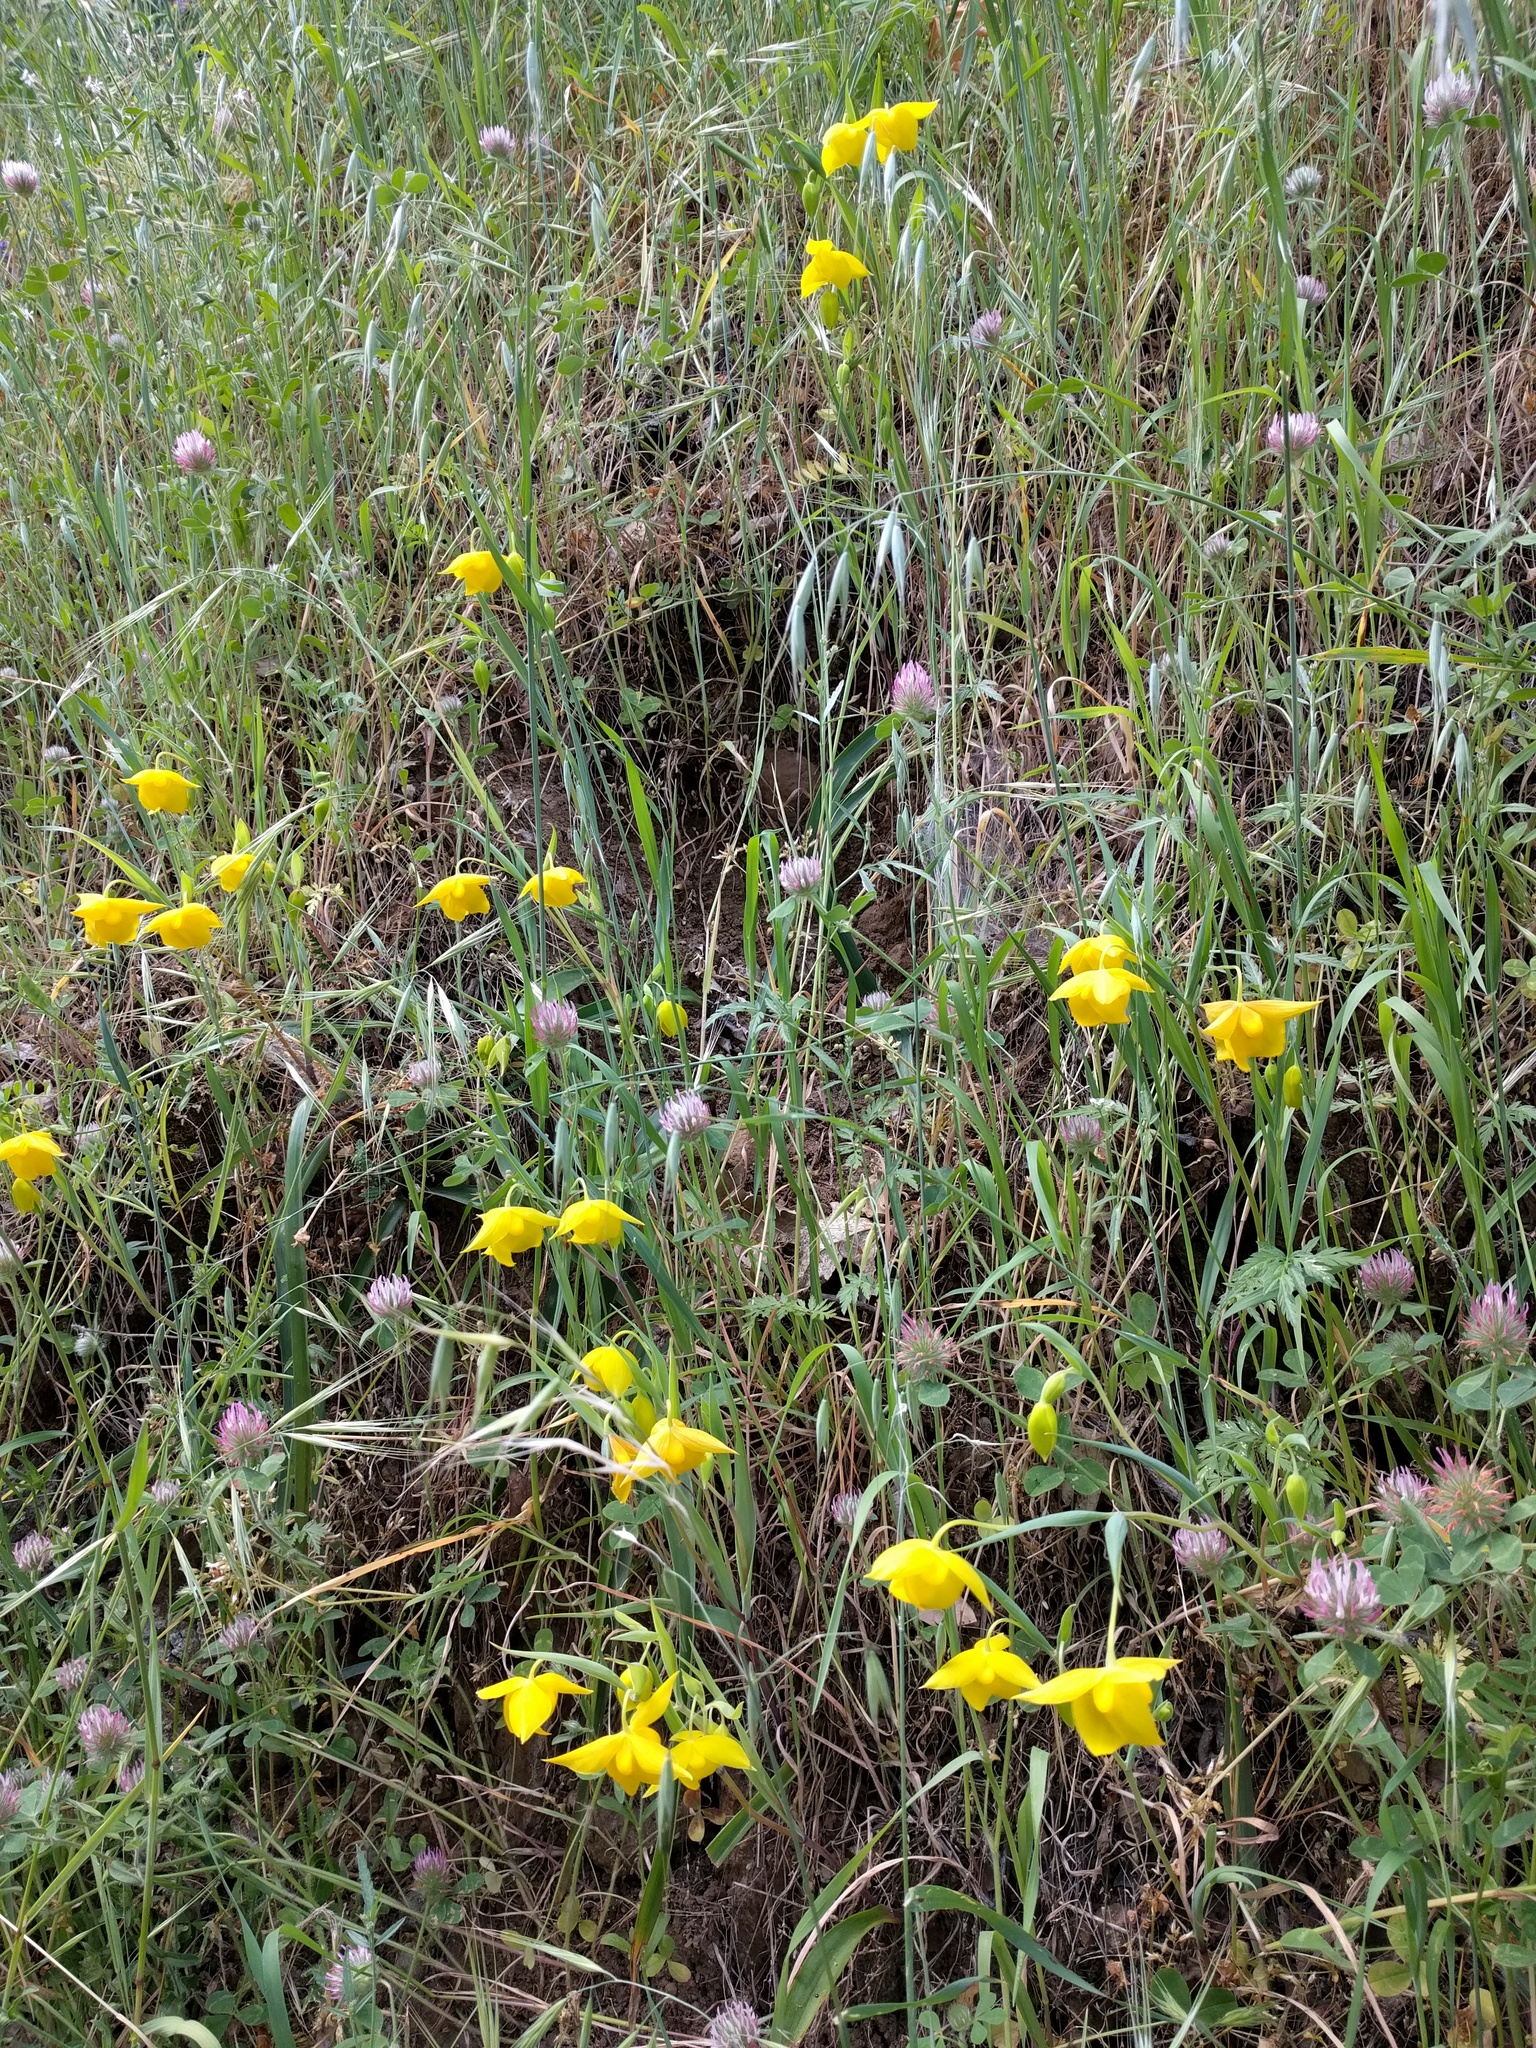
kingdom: Plantae
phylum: Tracheophyta
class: Liliopsida
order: Liliales
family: Liliaceae
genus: Calochortus
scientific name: Calochortus amabilis
